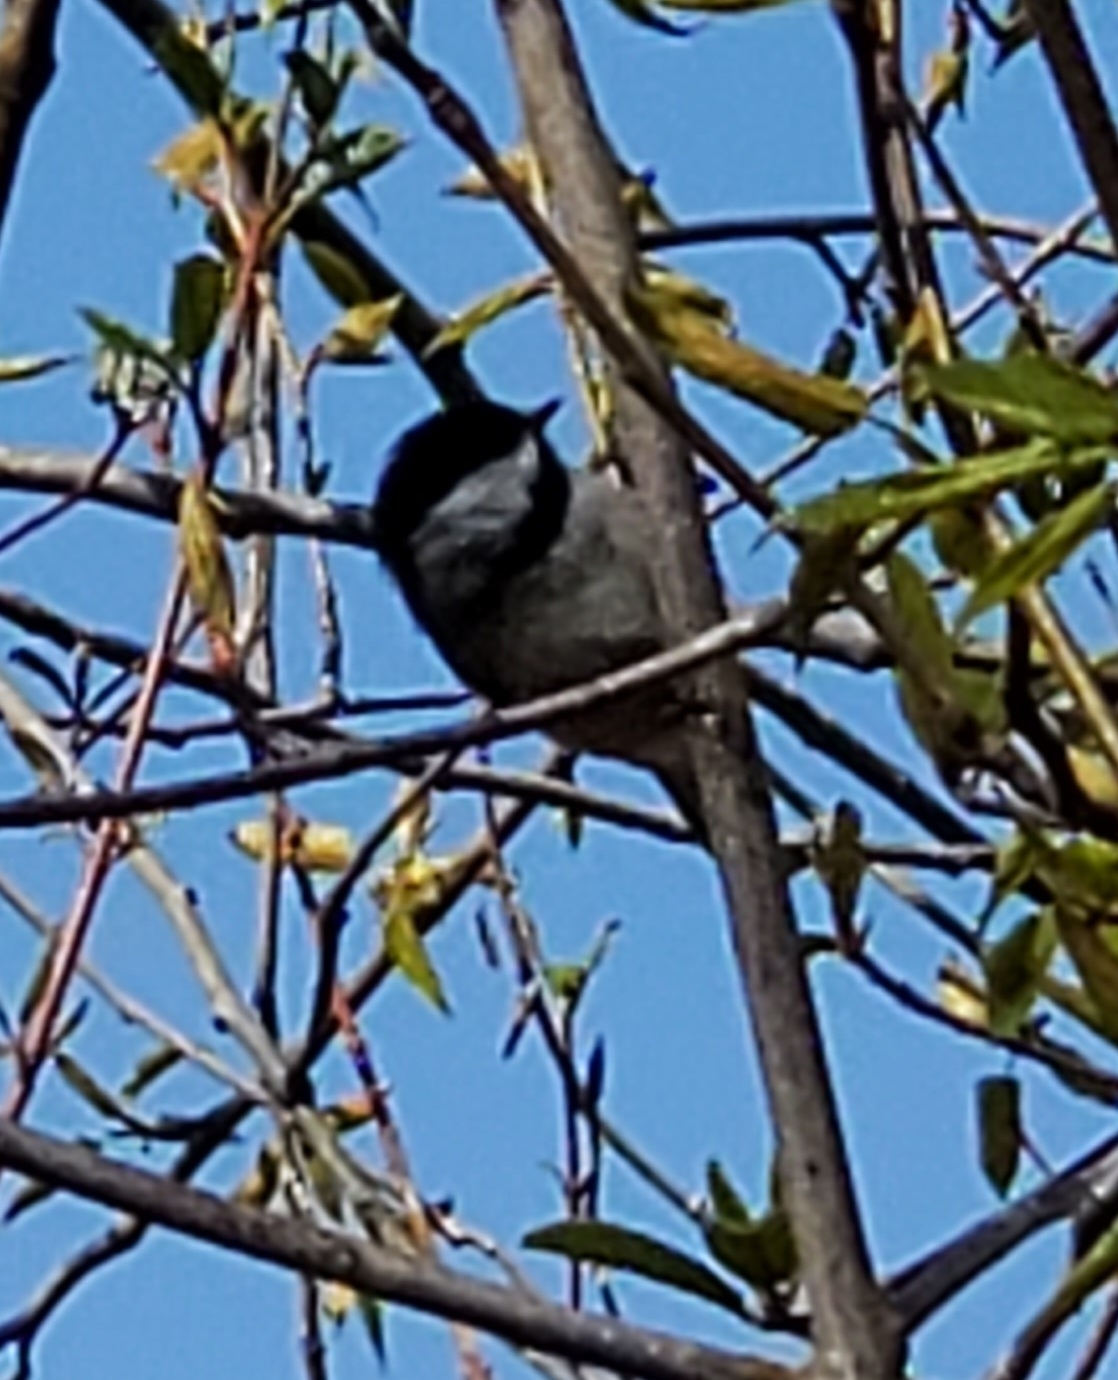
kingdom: Animalia
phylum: Chordata
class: Aves
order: Passeriformes
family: Paridae
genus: Poecile
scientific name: Poecile atricapillus
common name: Black-capped chickadee
